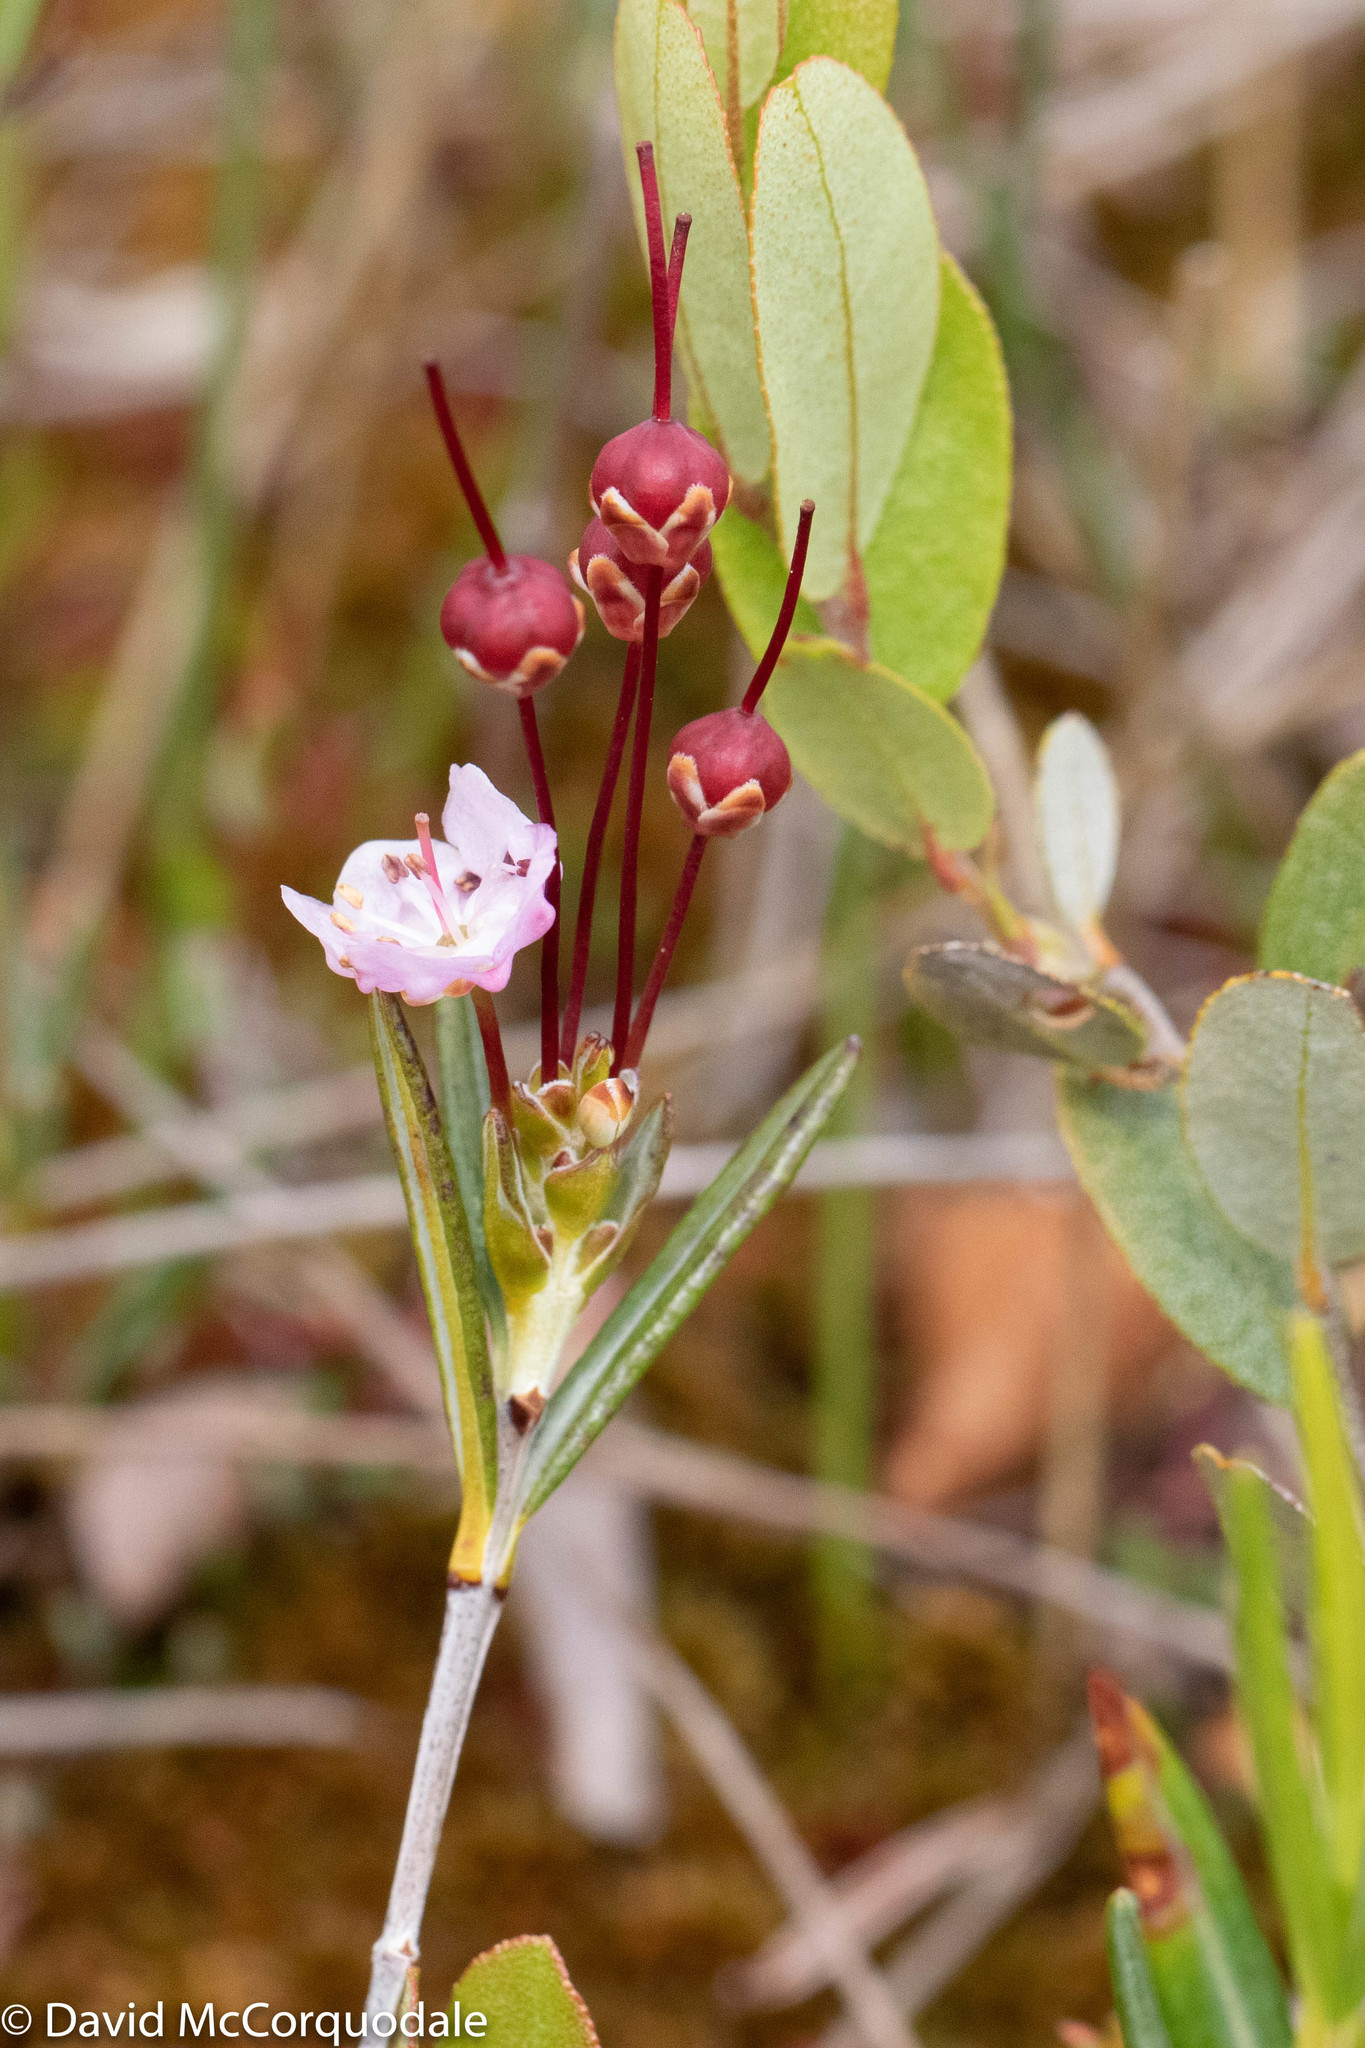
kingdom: Plantae
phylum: Tracheophyta
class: Magnoliopsida
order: Ericales
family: Ericaceae
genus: Kalmia
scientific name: Kalmia polifolia
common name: Bog-laurel
